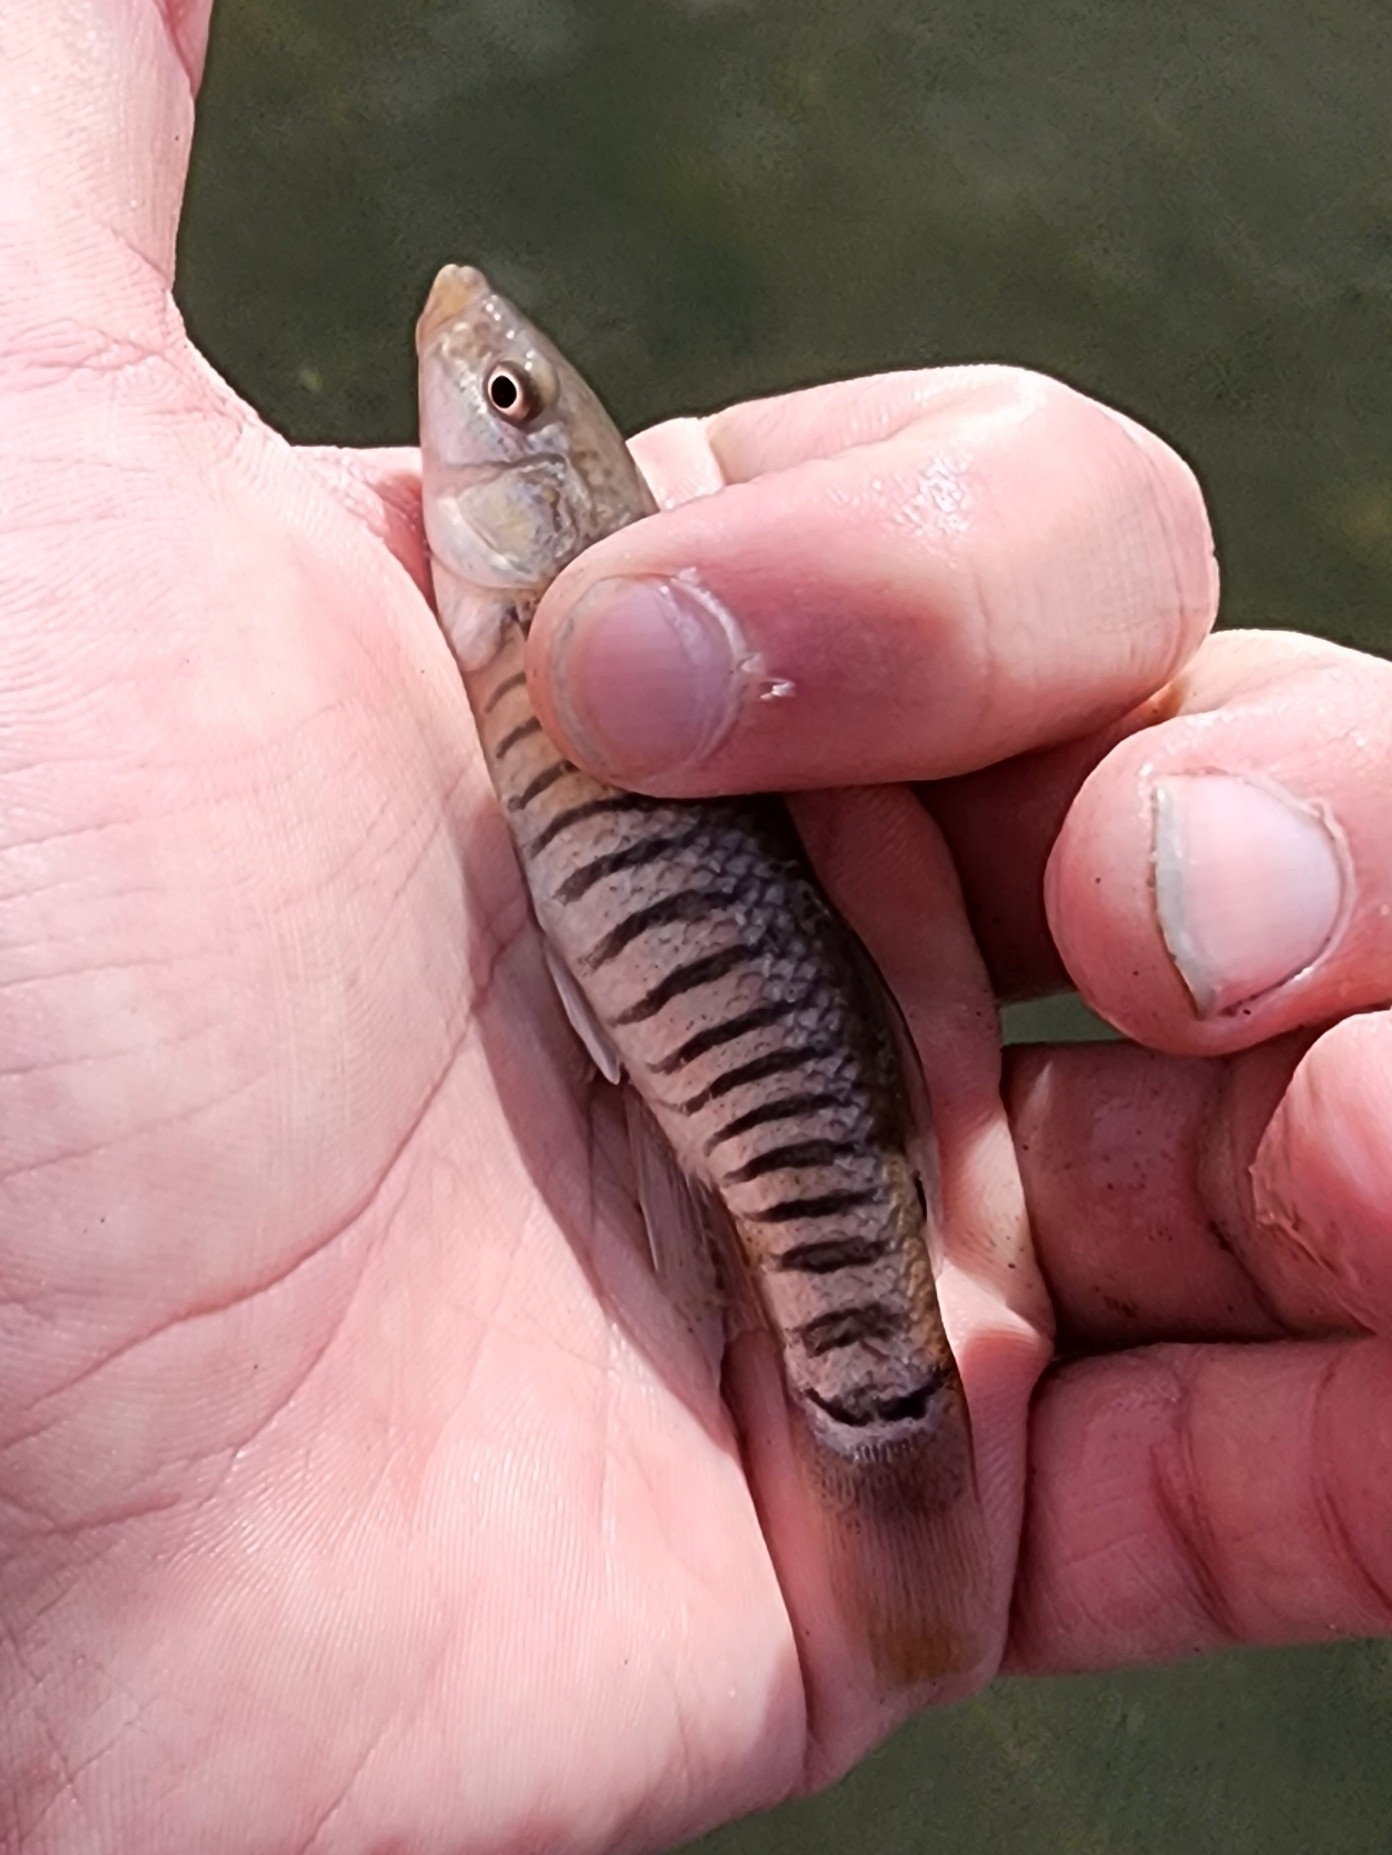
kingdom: Animalia
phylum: Chordata
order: Cyprinodontiformes
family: Fundulidae
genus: Fundulus
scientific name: Fundulus majalis
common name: Striped killifish
